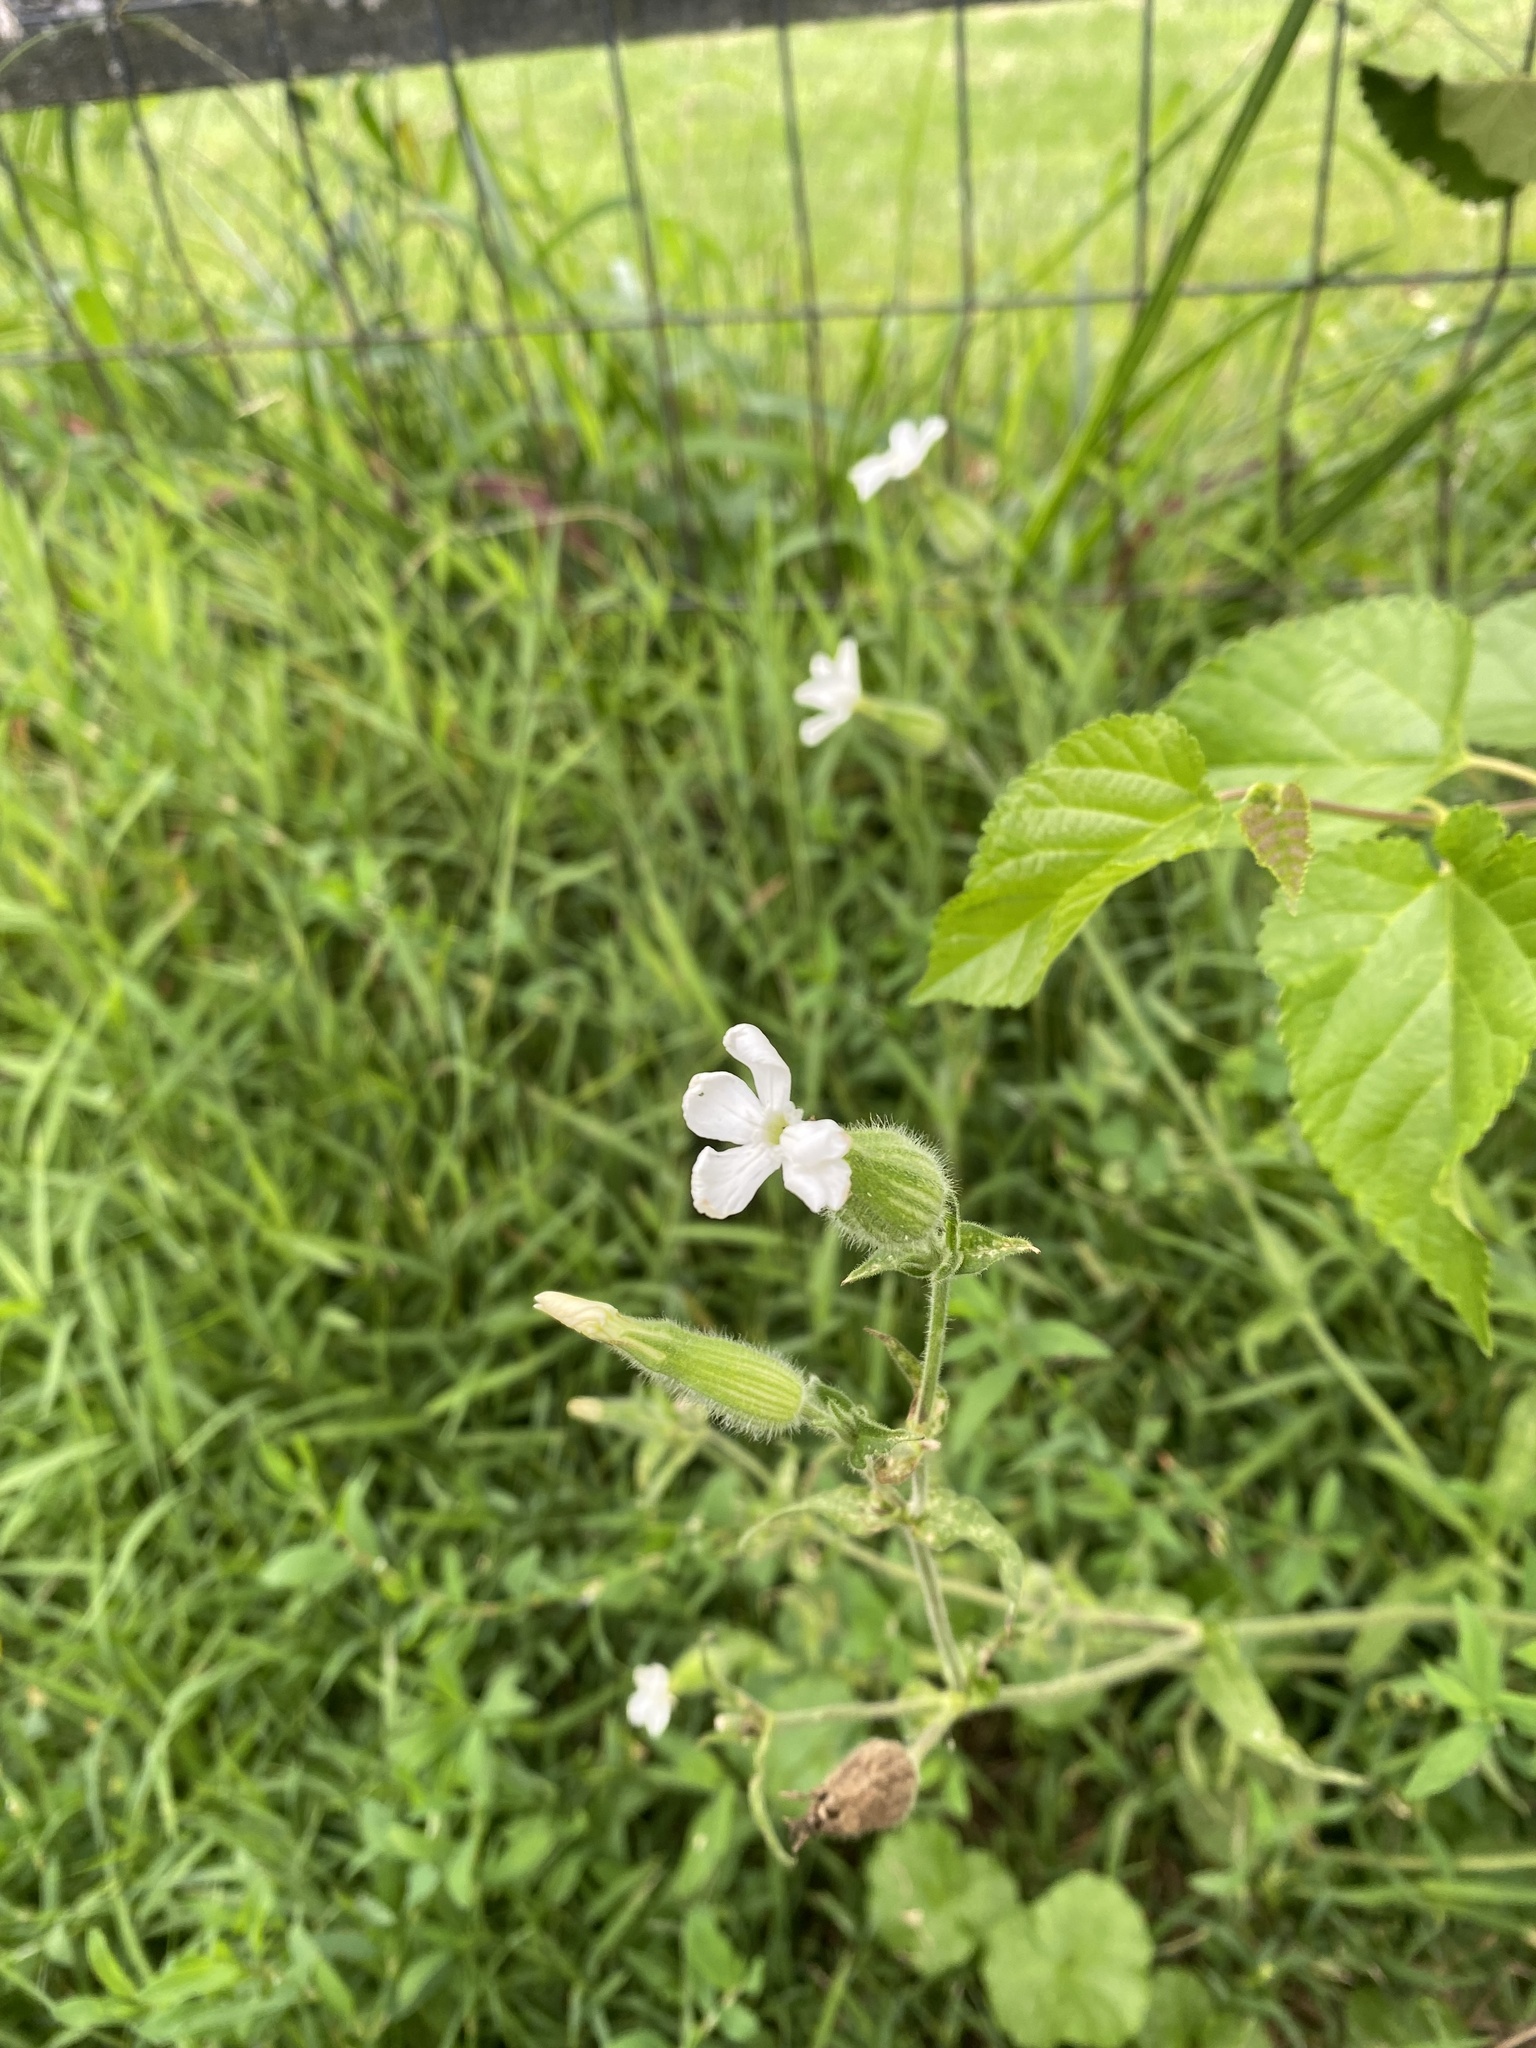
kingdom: Plantae
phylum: Tracheophyta
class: Magnoliopsida
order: Caryophyllales
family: Caryophyllaceae
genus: Silene
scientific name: Silene latifolia
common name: White campion
